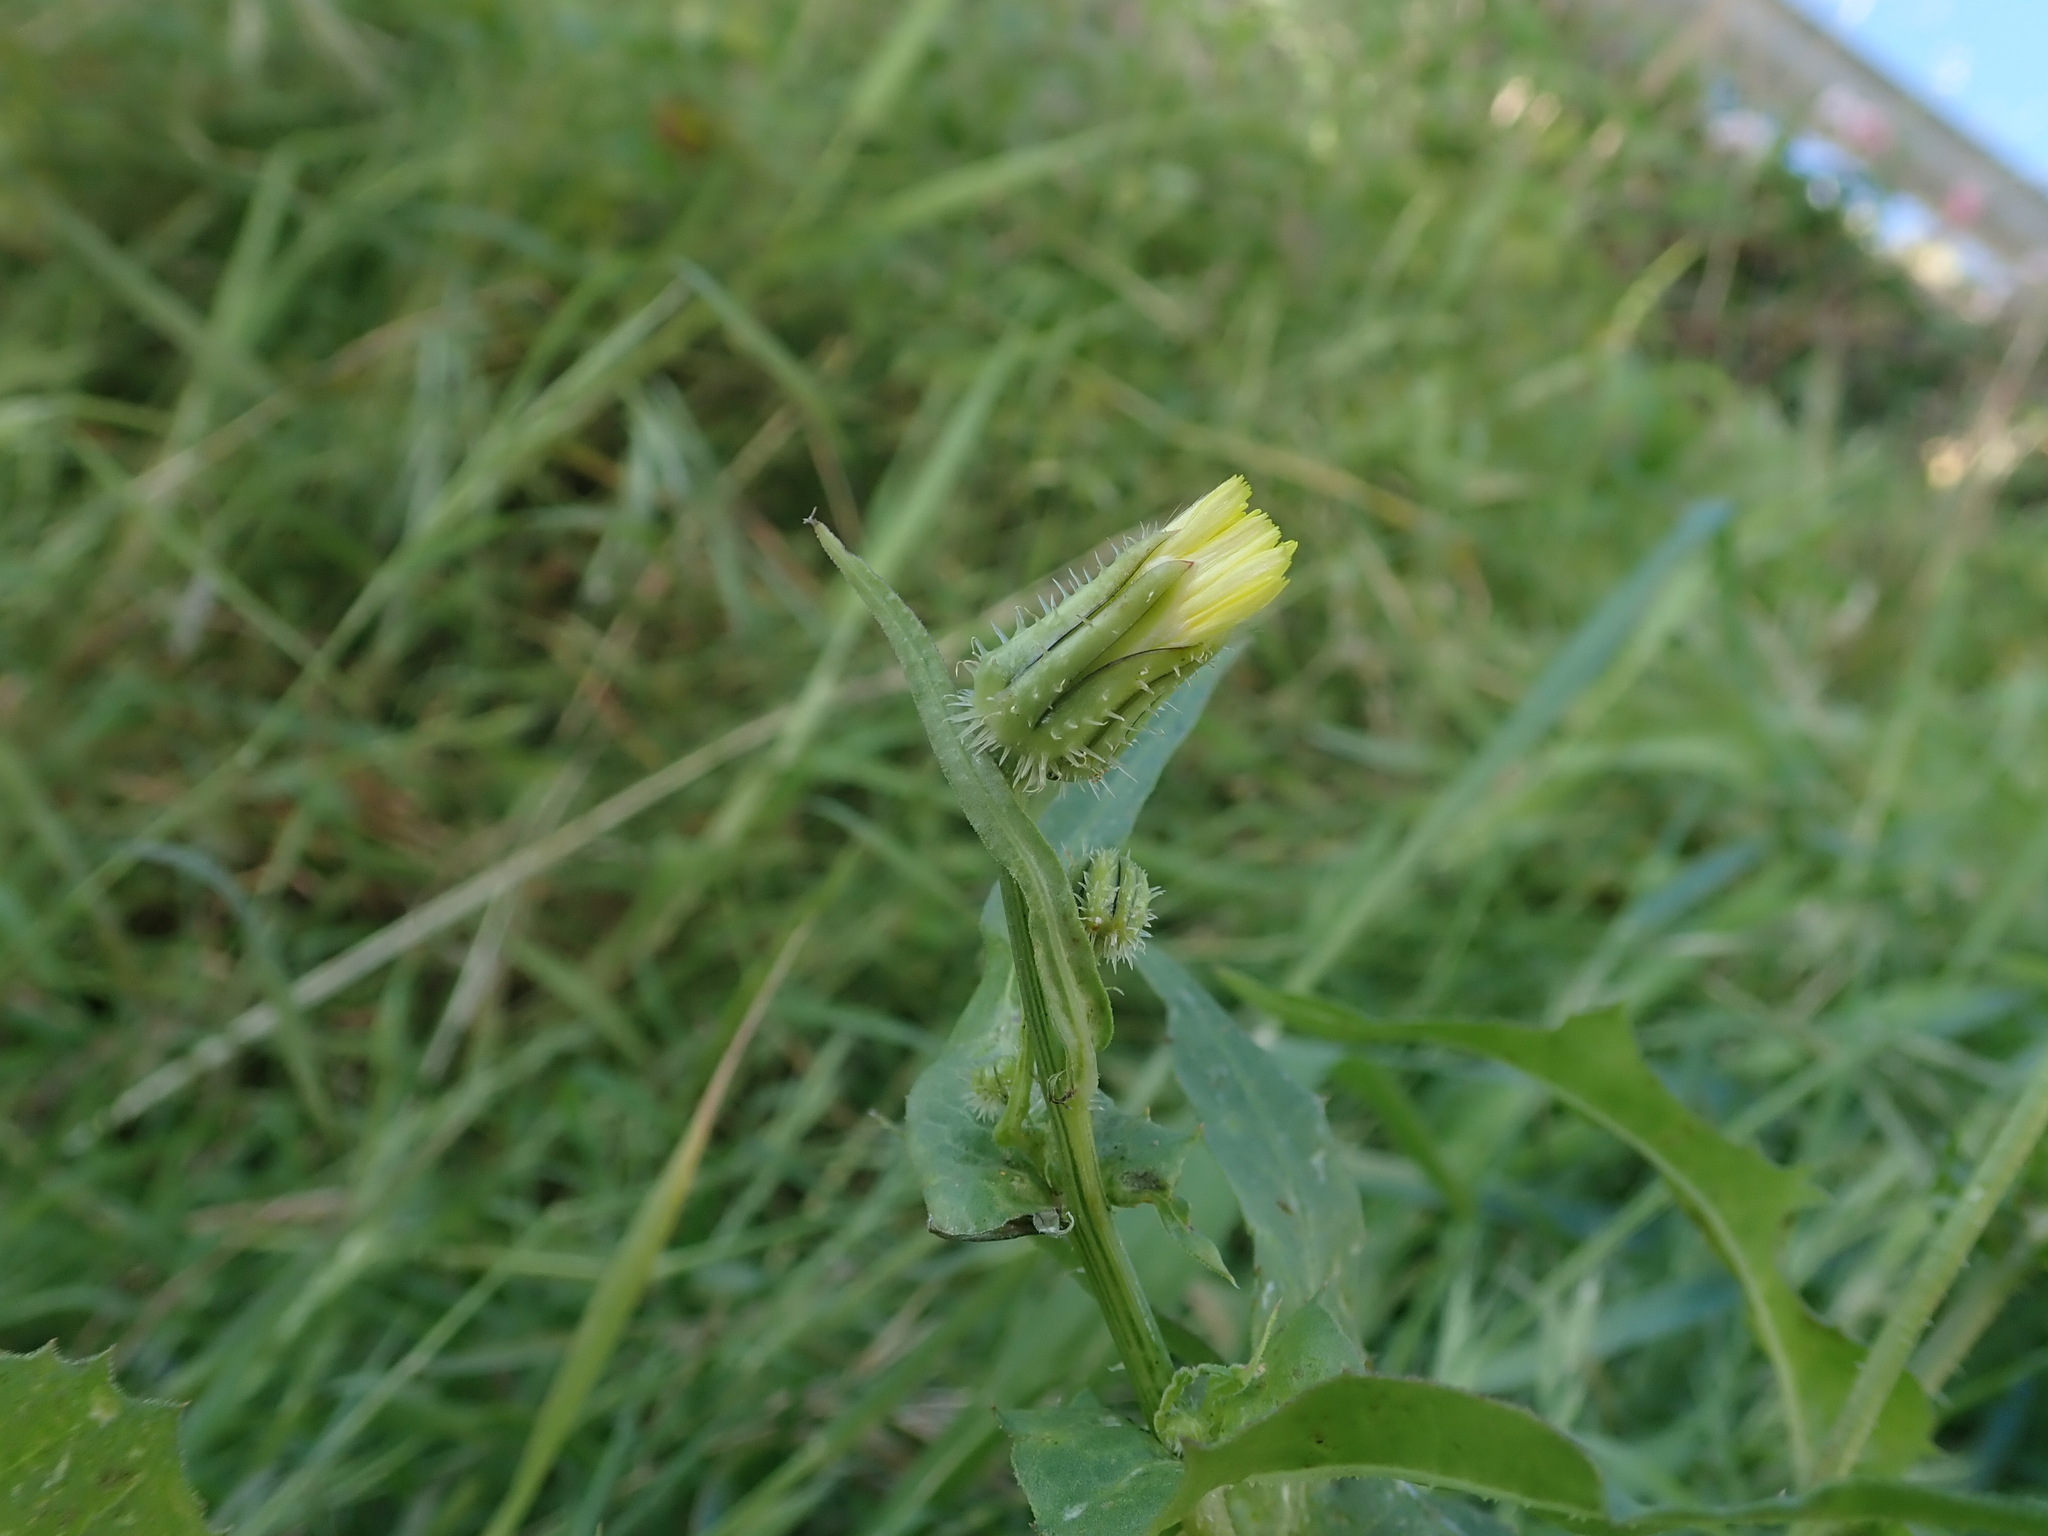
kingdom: Plantae
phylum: Tracheophyta
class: Magnoliopsida
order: Asterales
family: Asteraceae
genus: Urospermum
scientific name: Urospermum picroides
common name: False hawkbit
